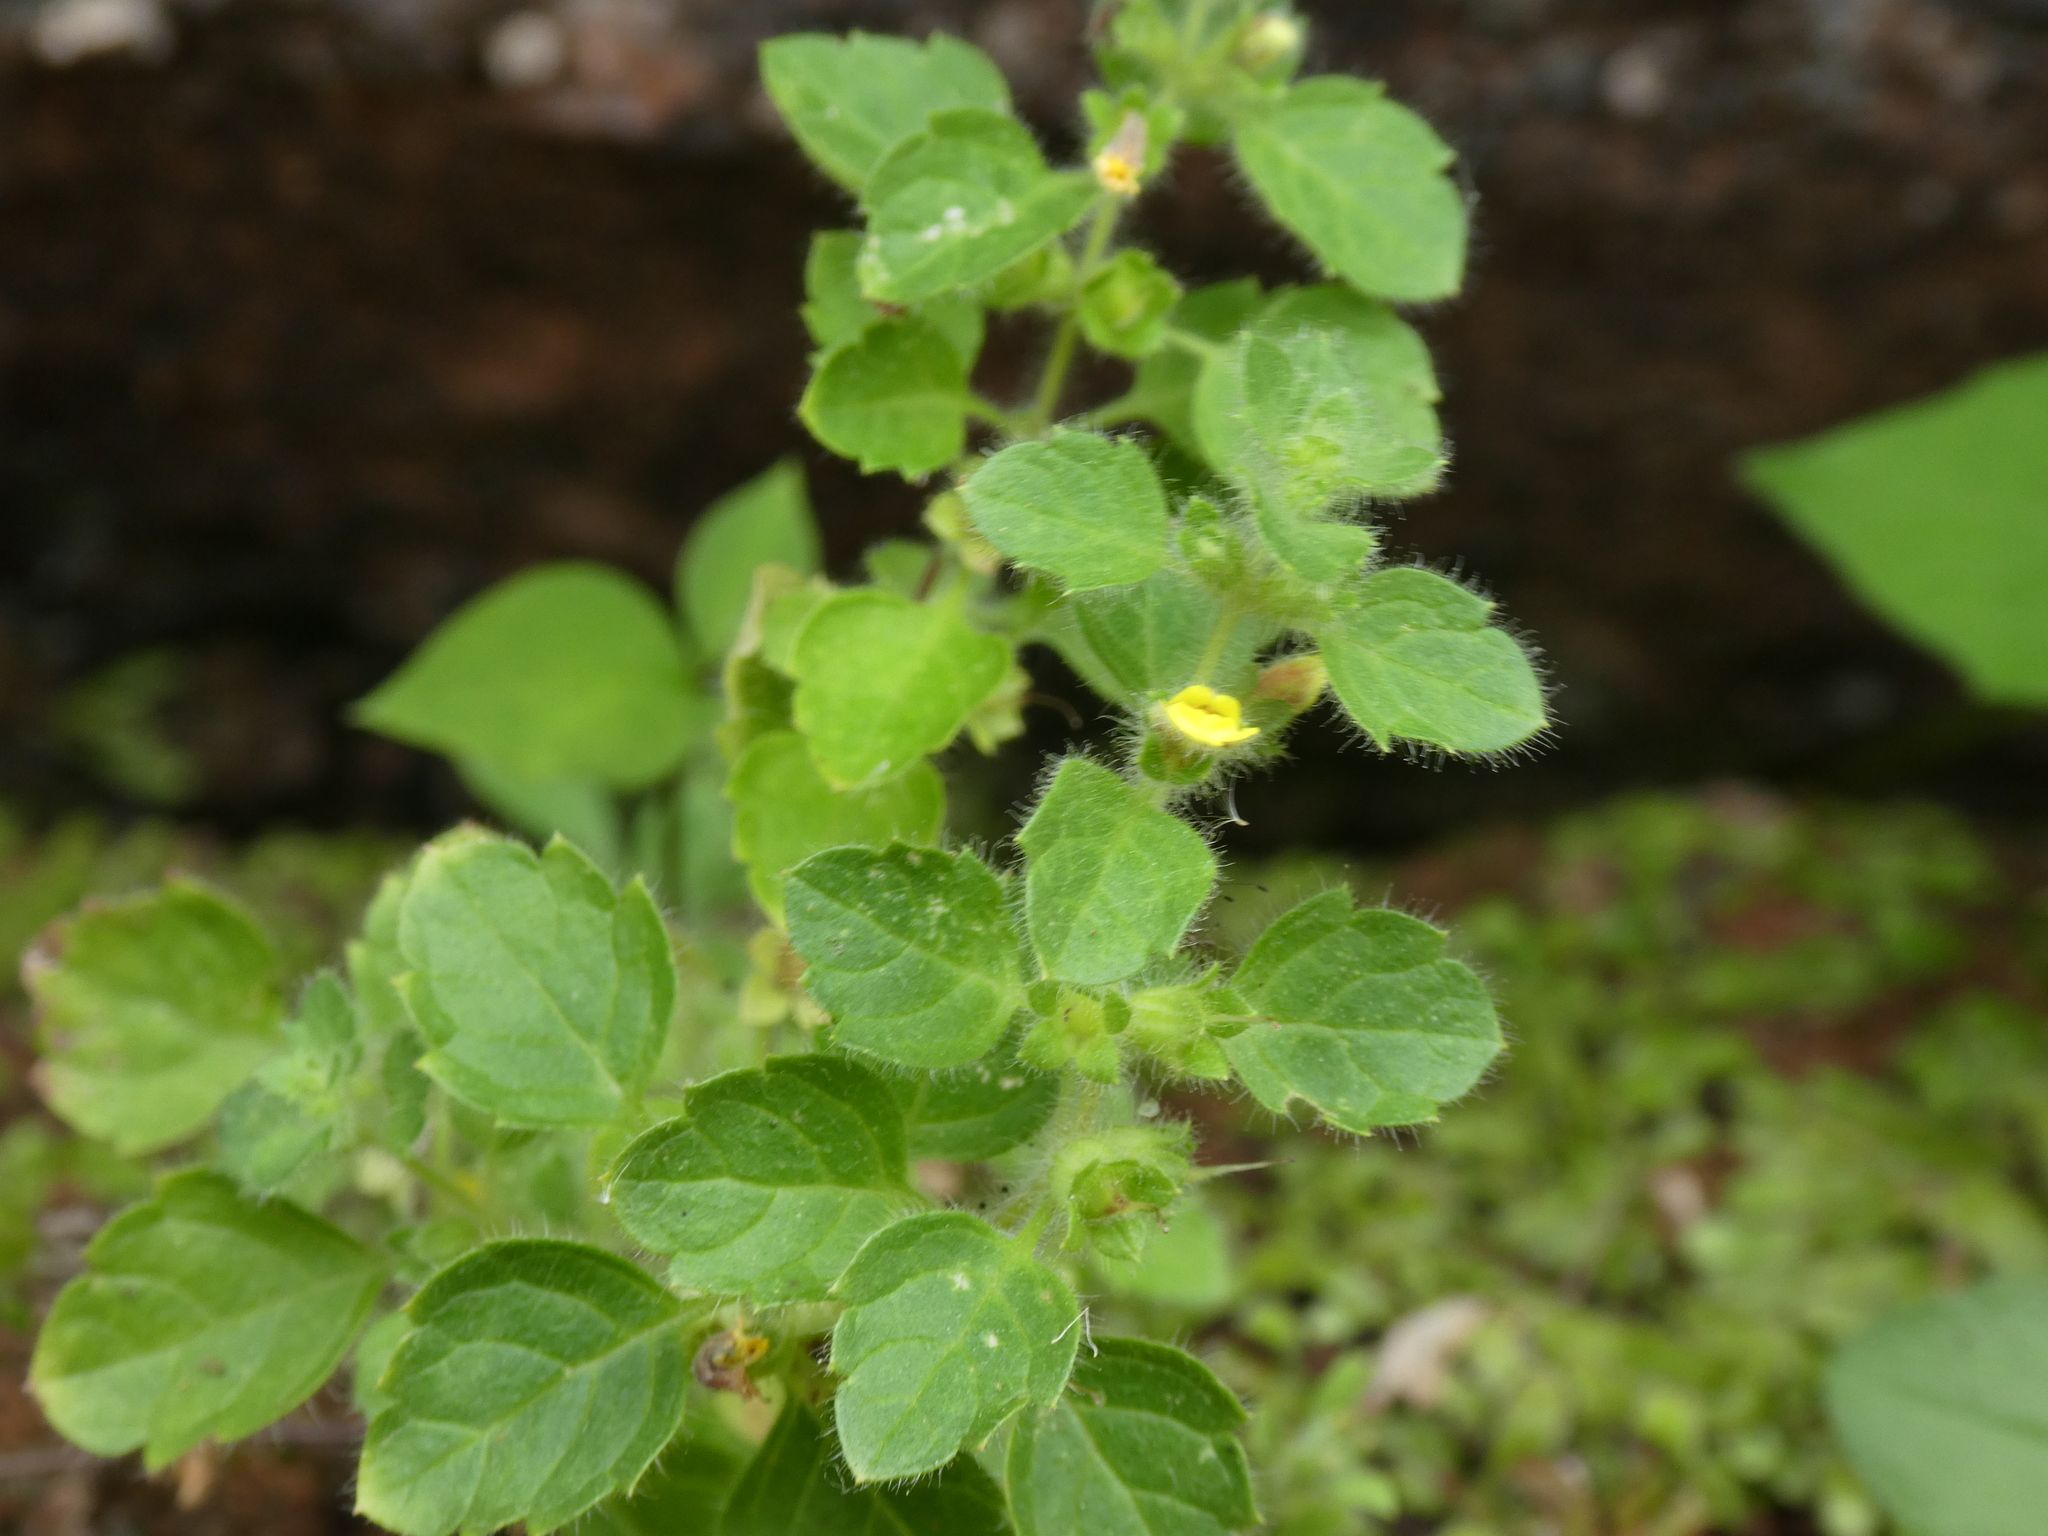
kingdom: Plantae
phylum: Tracheophyta
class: Magnoliopsida
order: Lamiales
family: Orobanchaceae
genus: Lindenbergia
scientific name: Lindenbergia muraria
